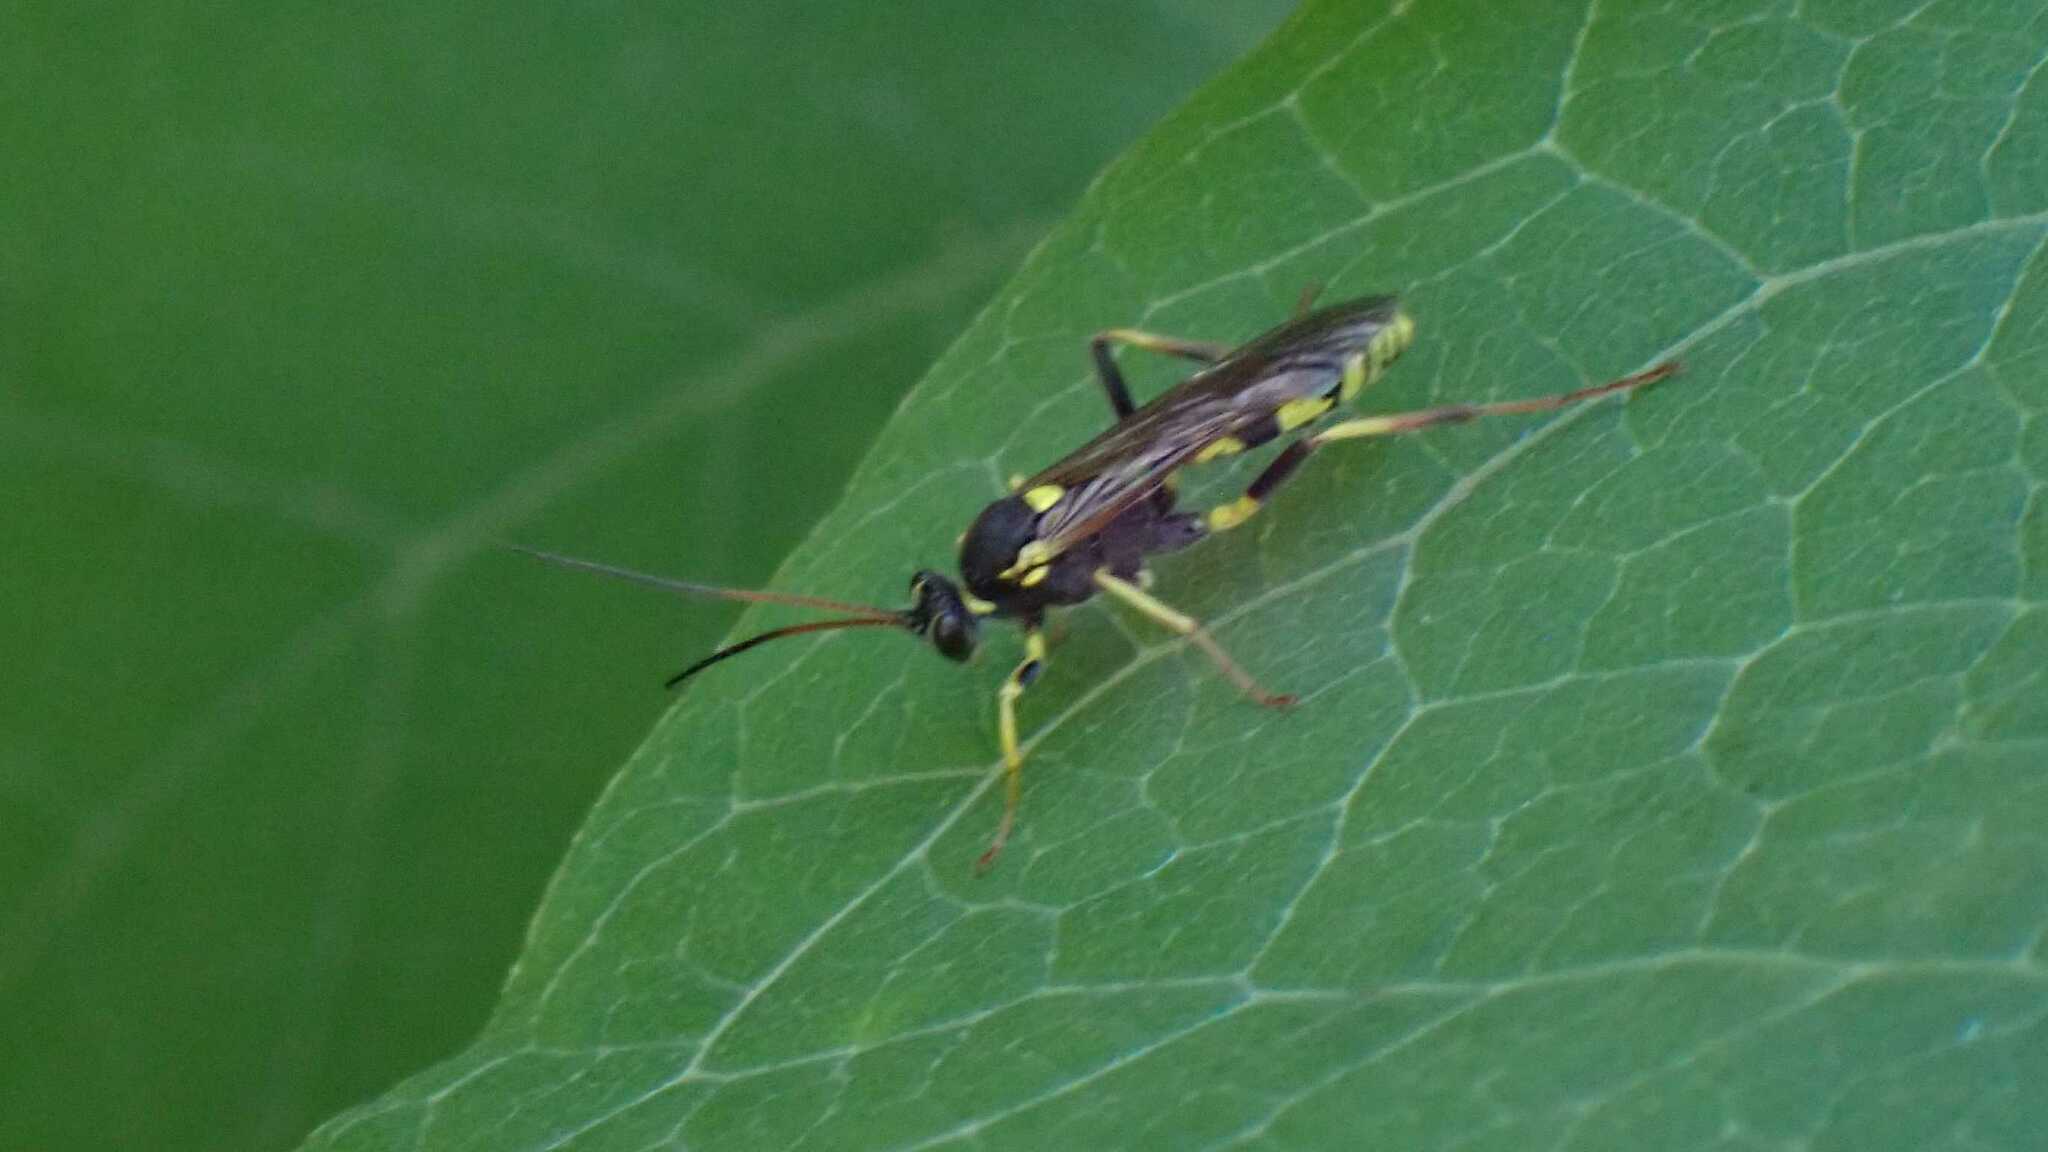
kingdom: Animalia
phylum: Arthropoda
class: Insecta
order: Hymenoptera
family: Ichneumonidae
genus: Amblyteles
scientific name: Amblyteles armatorius
